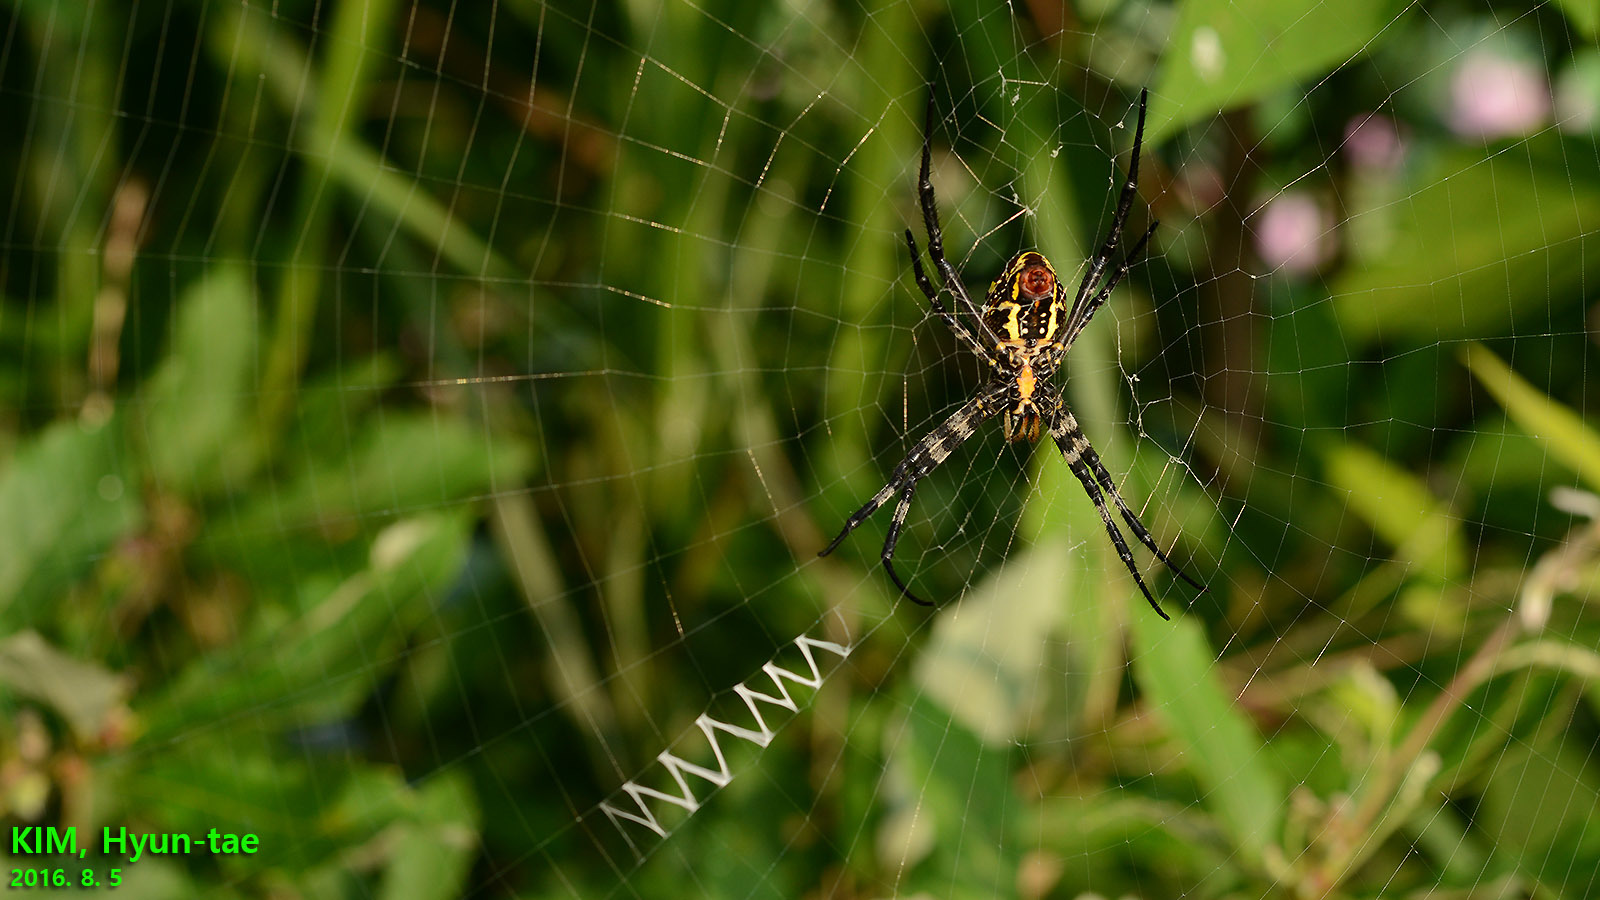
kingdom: Animalia
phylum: Arthropoda
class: Arachnida
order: Araneae
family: Araneidae
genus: Argiope
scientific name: Argiope bruennichi
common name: Wasp spider
